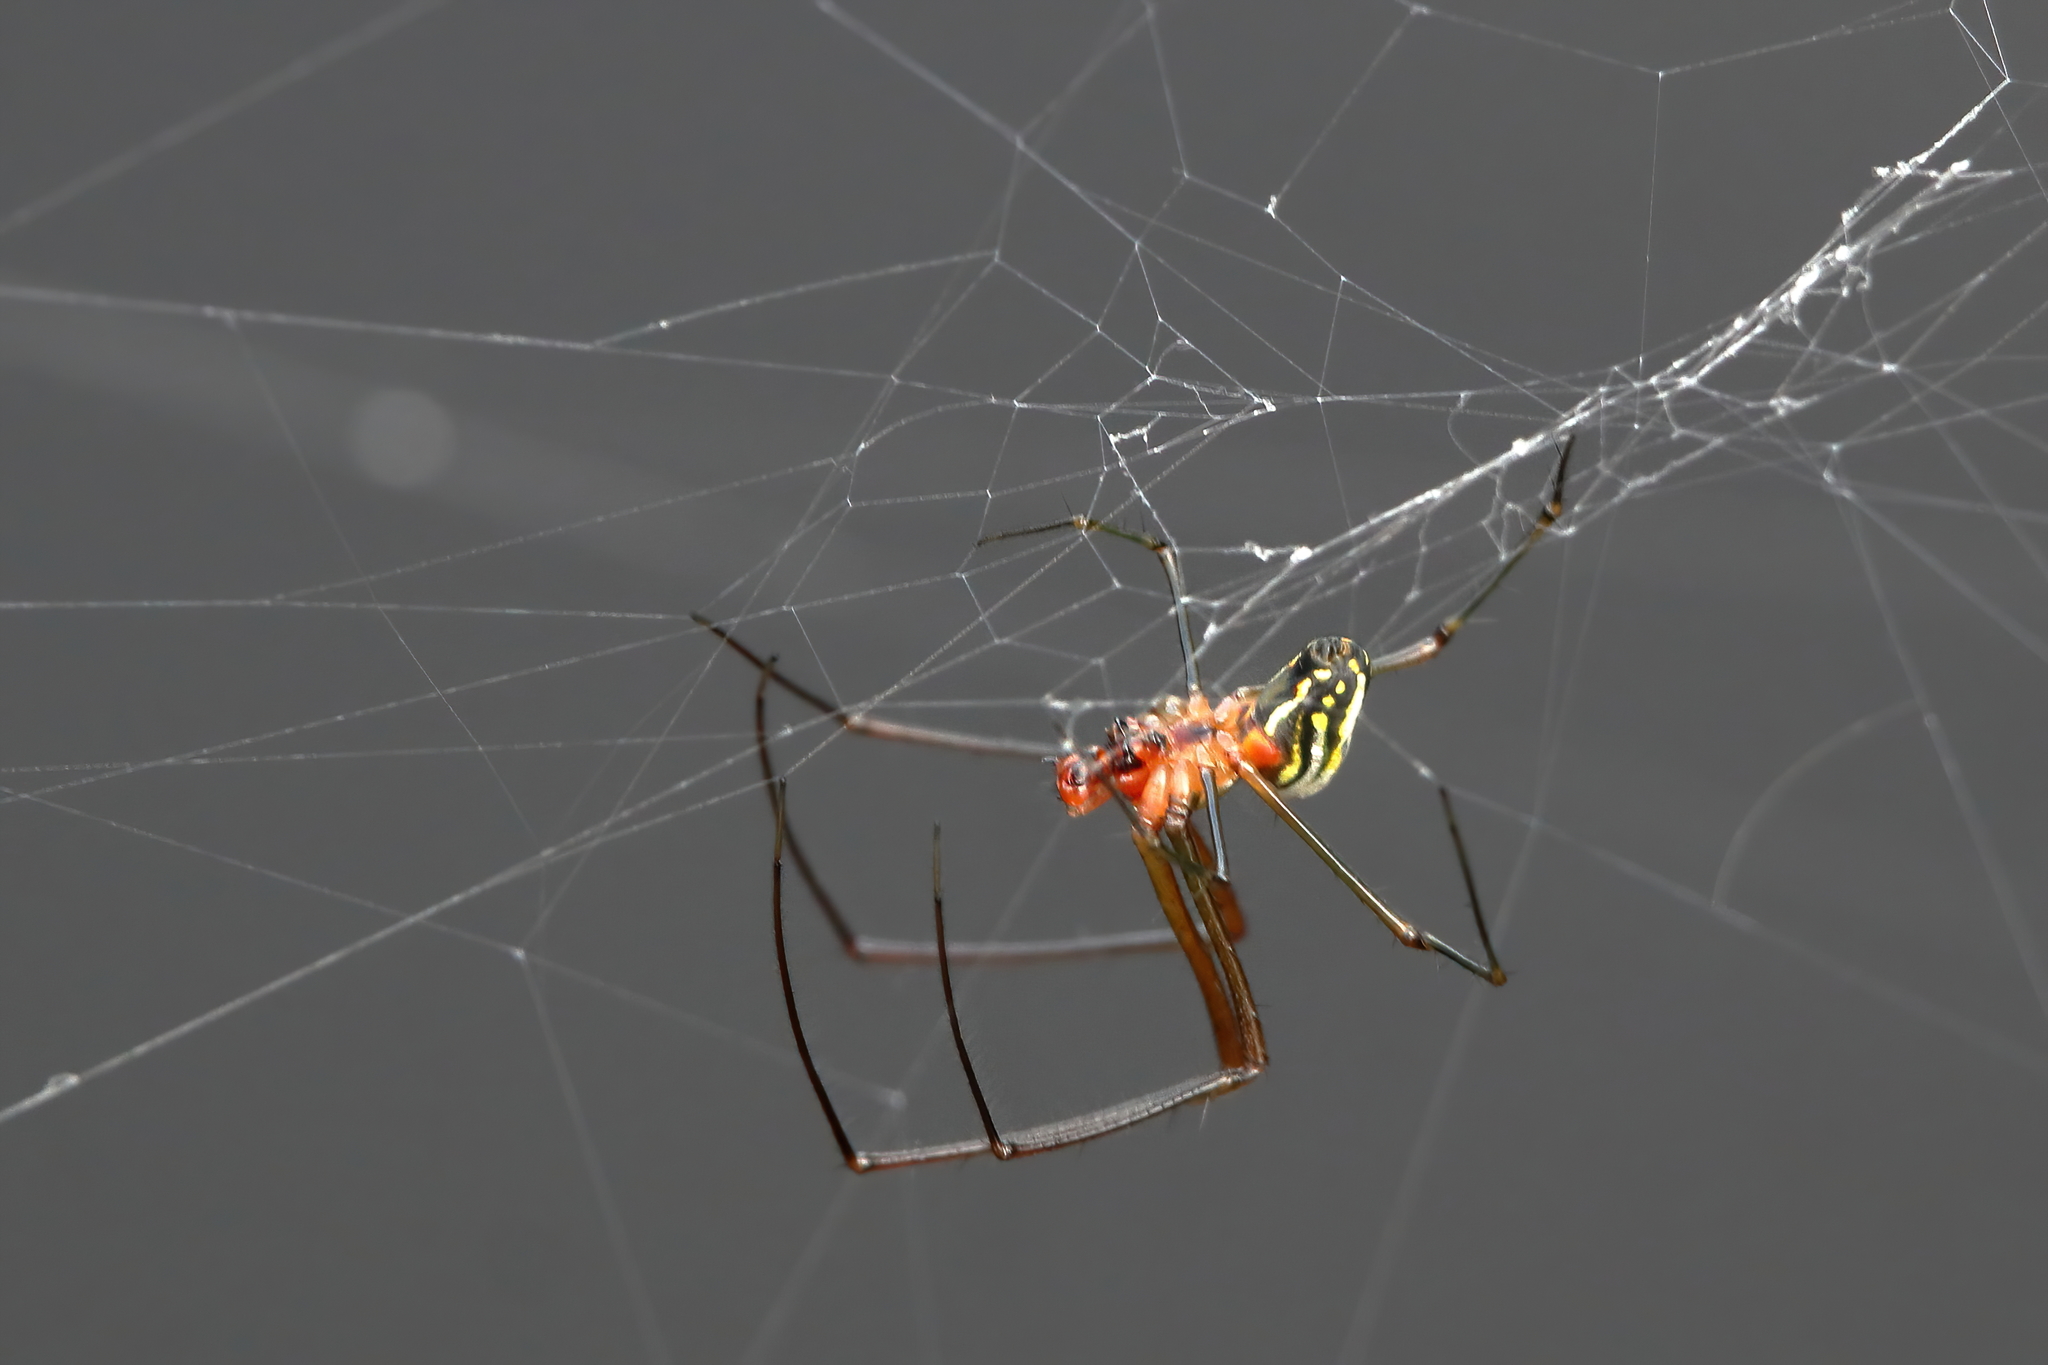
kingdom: Animalia
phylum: Arthropoda
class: Arachnida
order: Araneae
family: Tetragnathidae
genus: Leucauge
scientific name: Leucauge argyra
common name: Longjawed orb weavers
